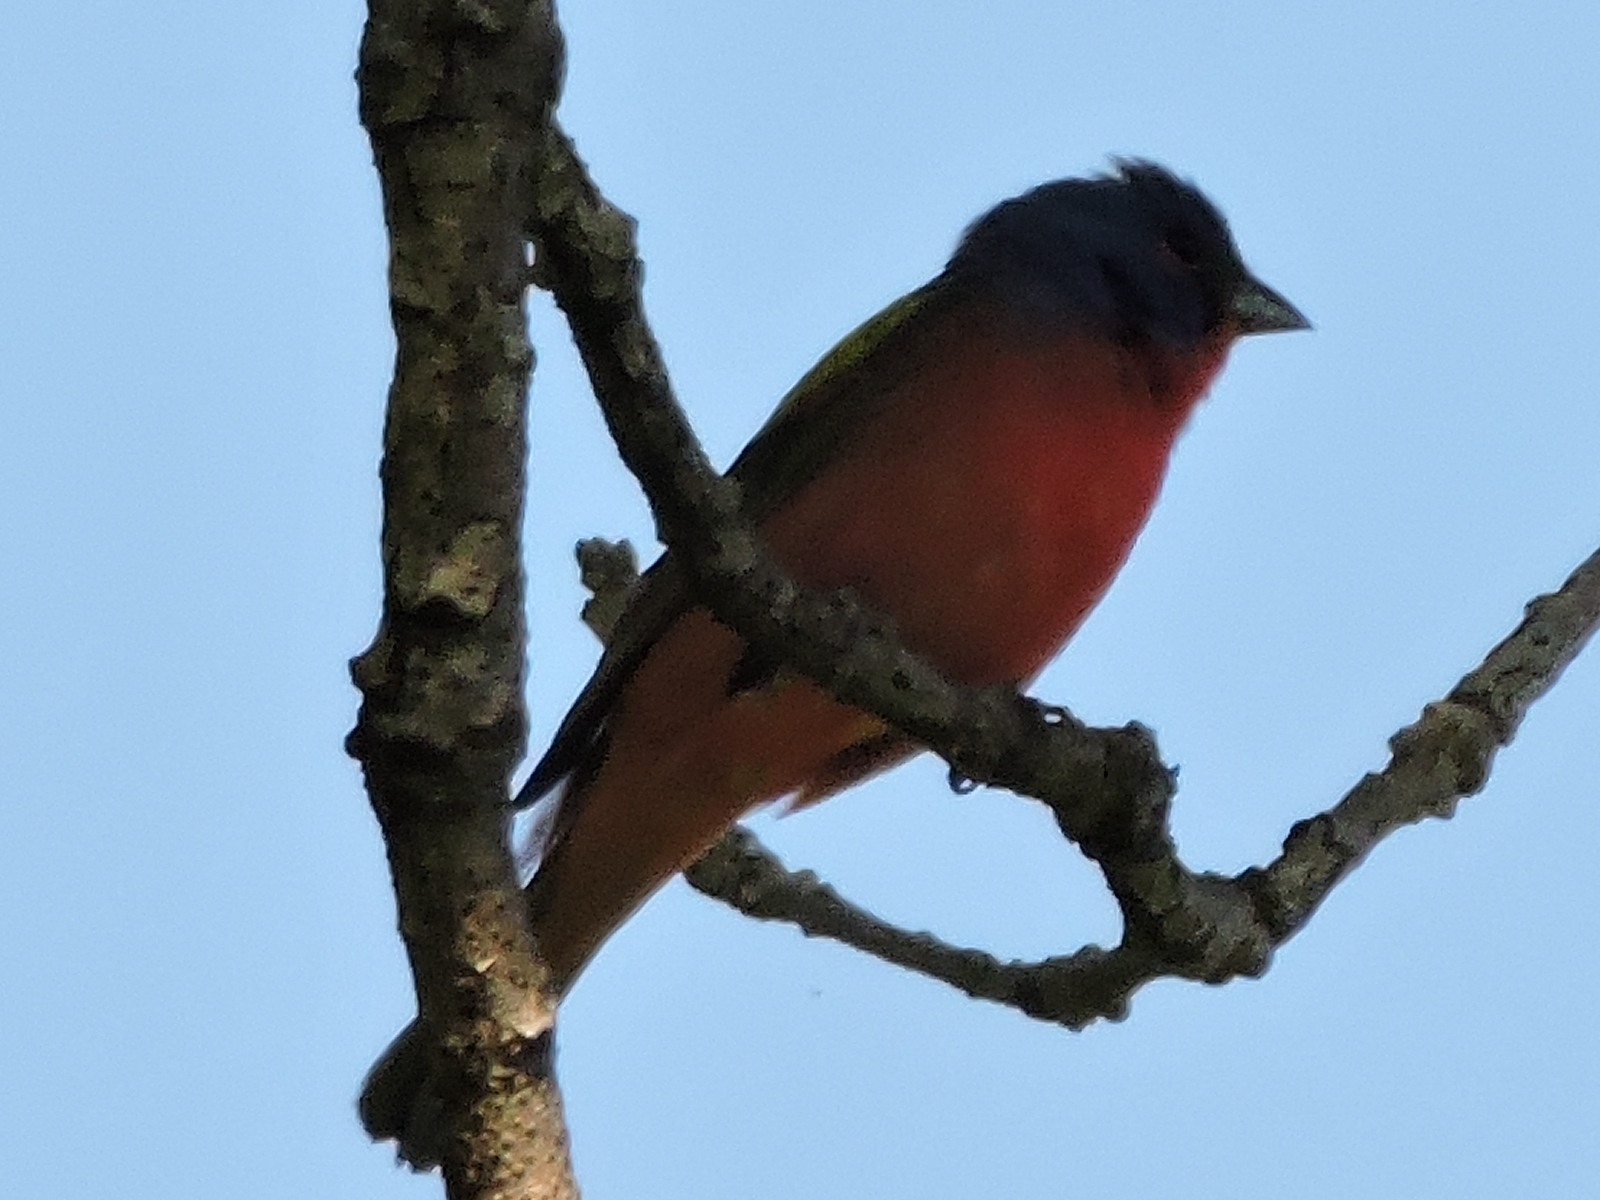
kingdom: Animalia
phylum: Chordata
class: Aves
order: Passeriformes
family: Cardinalidae
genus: Passerina
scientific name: Passerina ciris
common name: Painted bunting
